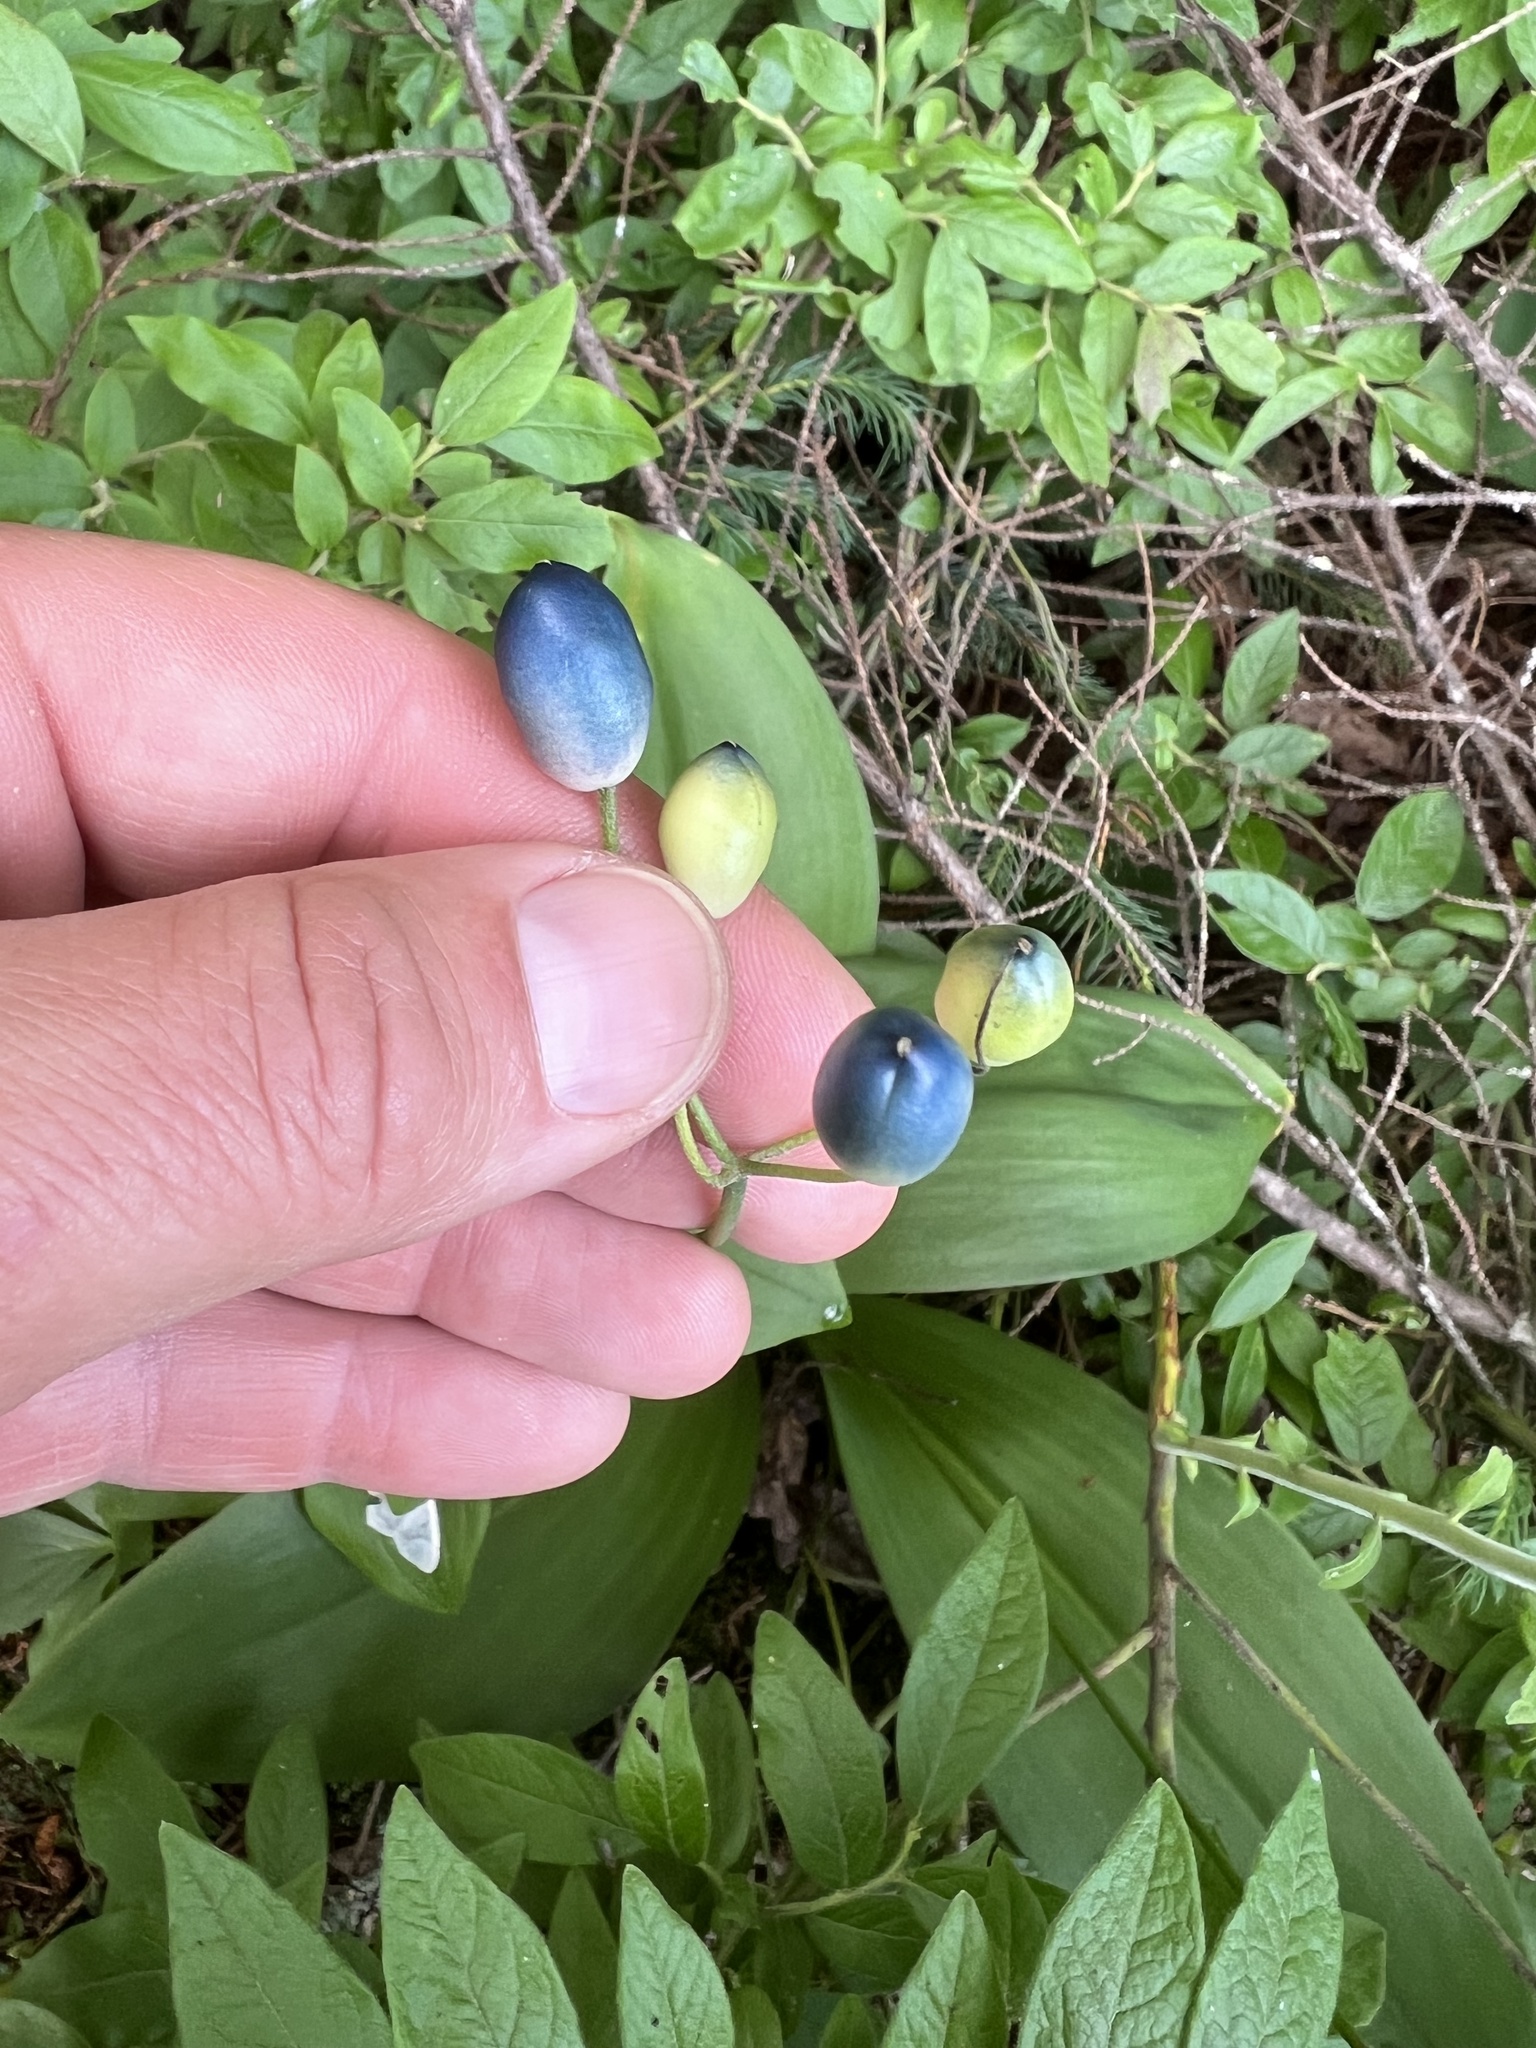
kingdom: Plantae
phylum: Tracheophyta
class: Liliopsida
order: Liliales
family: Liliaceae
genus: Clintonia
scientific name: Clintonia borealis
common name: Yellow clintonia
